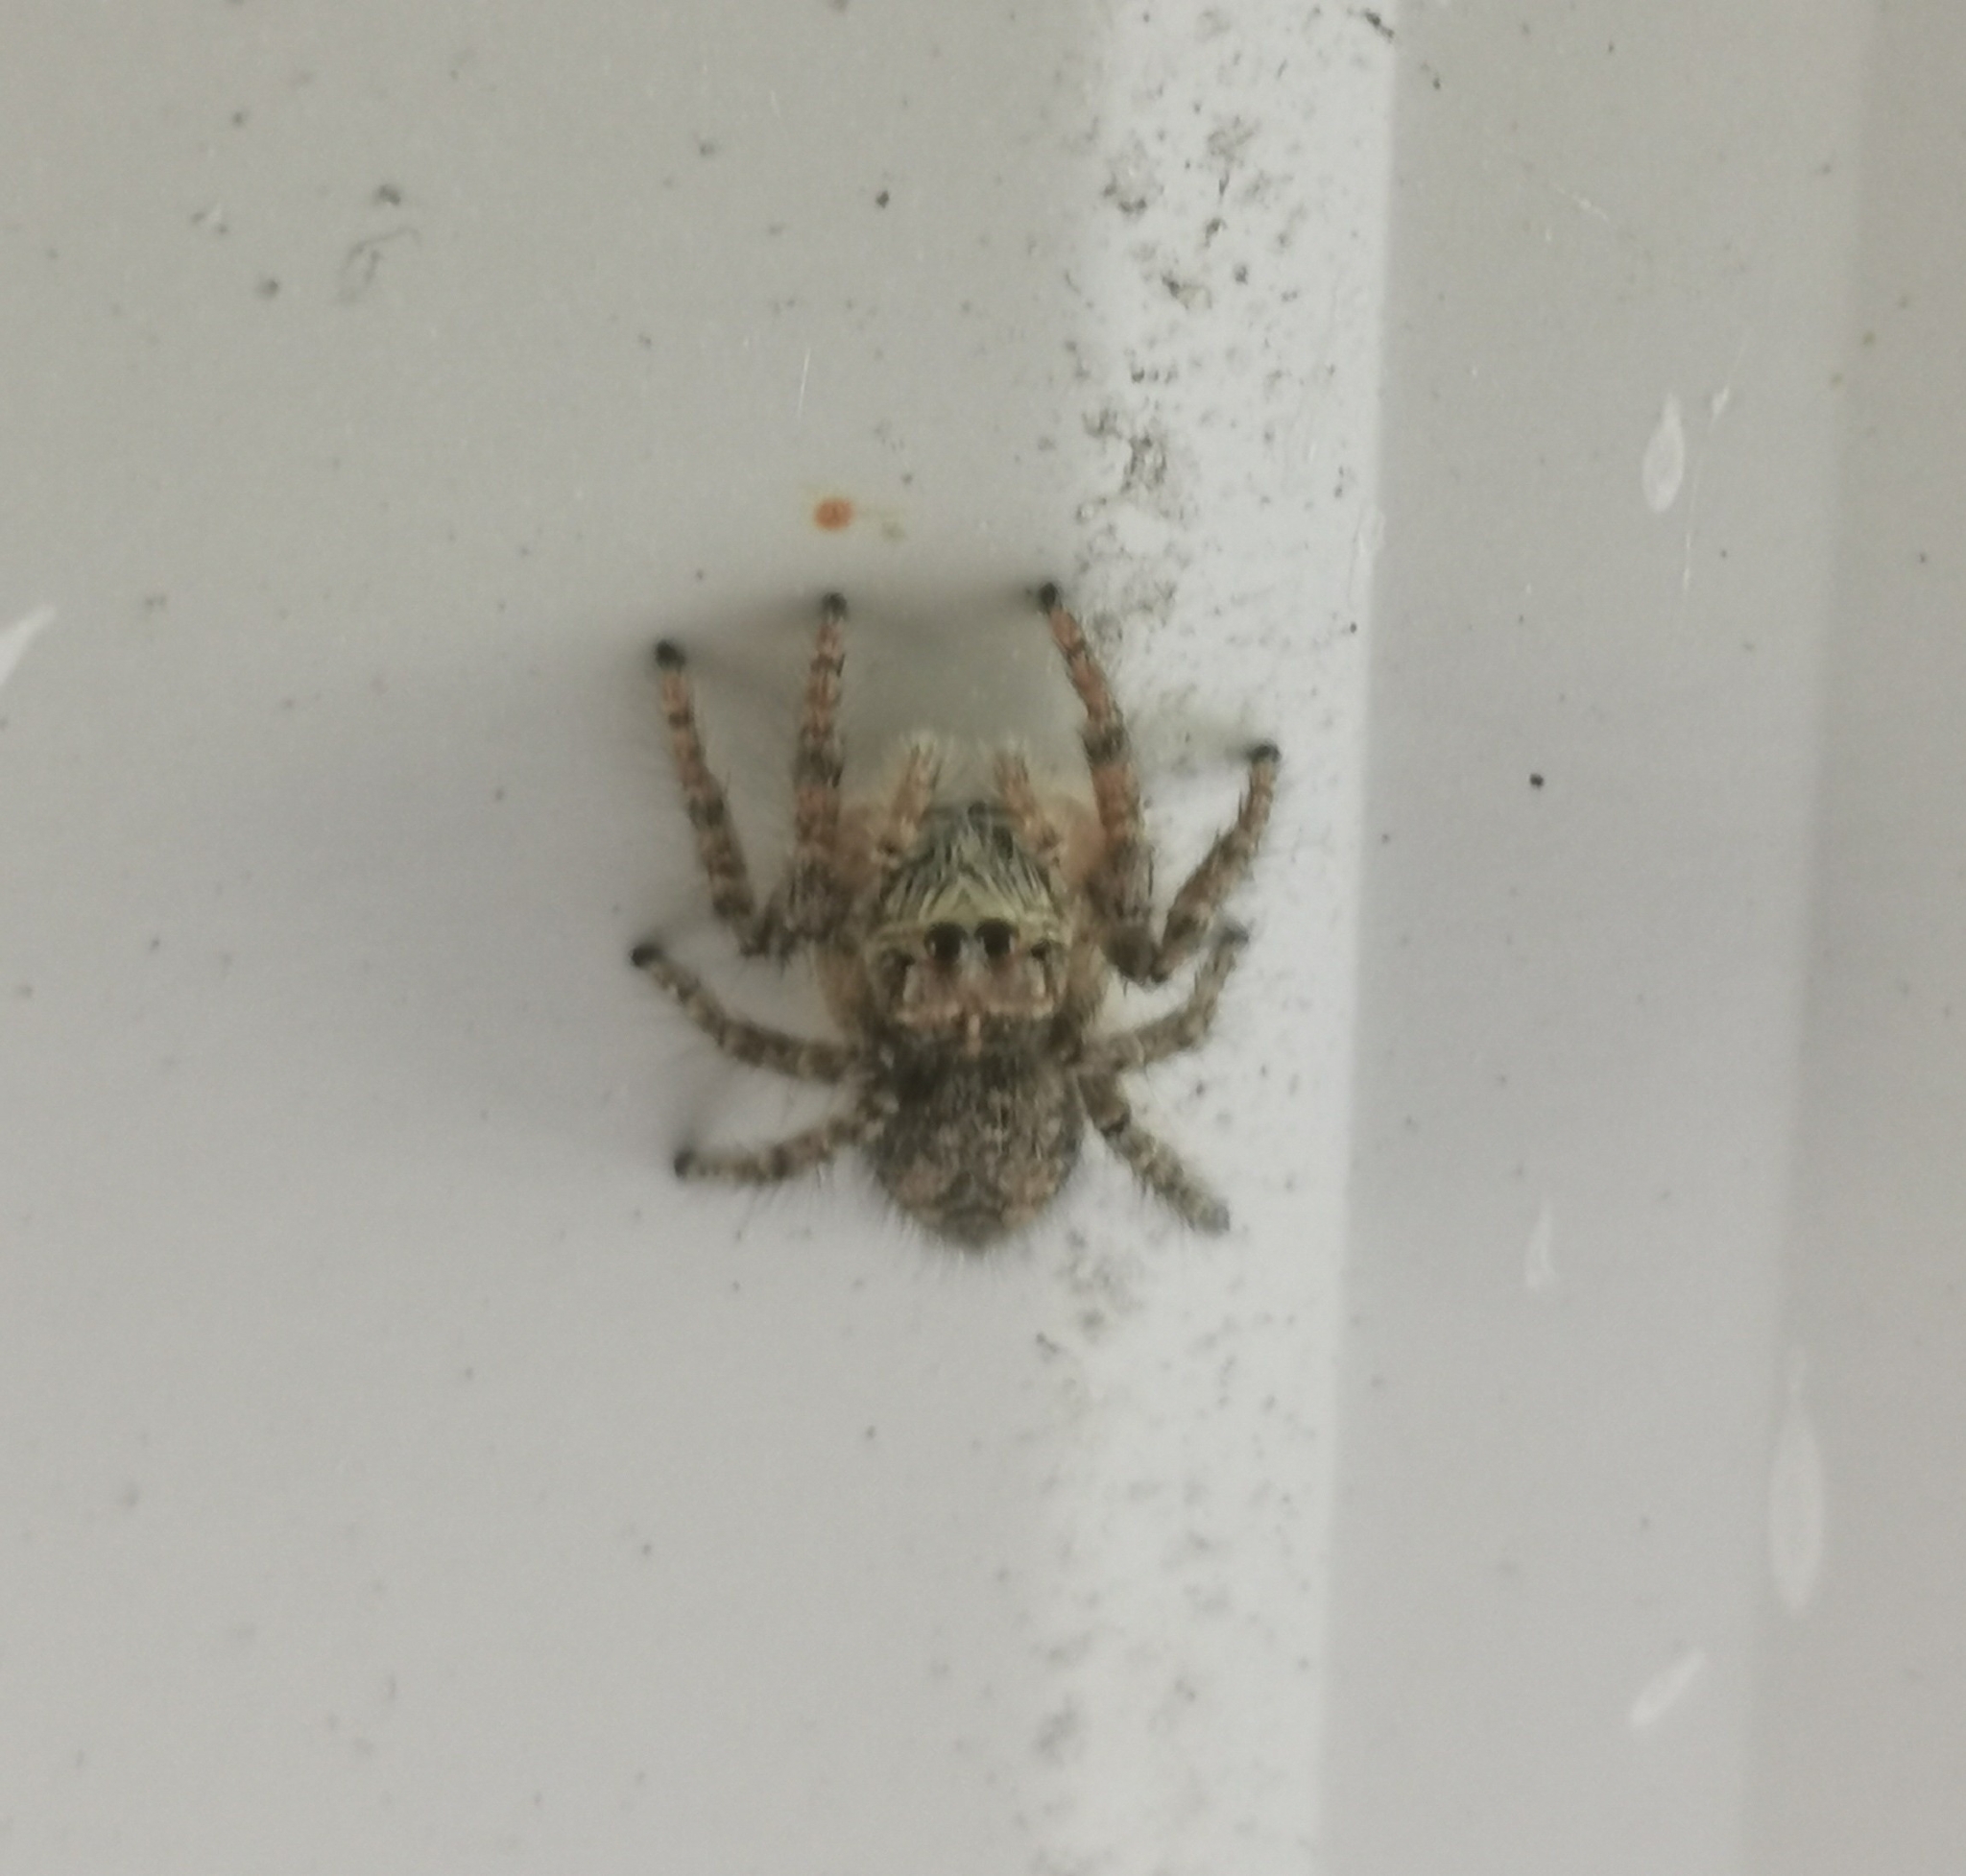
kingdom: Animalia
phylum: Arthropoda
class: Arachnida
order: Araneae
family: Salticidae
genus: Philaeus
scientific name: Philaeus chrysops
